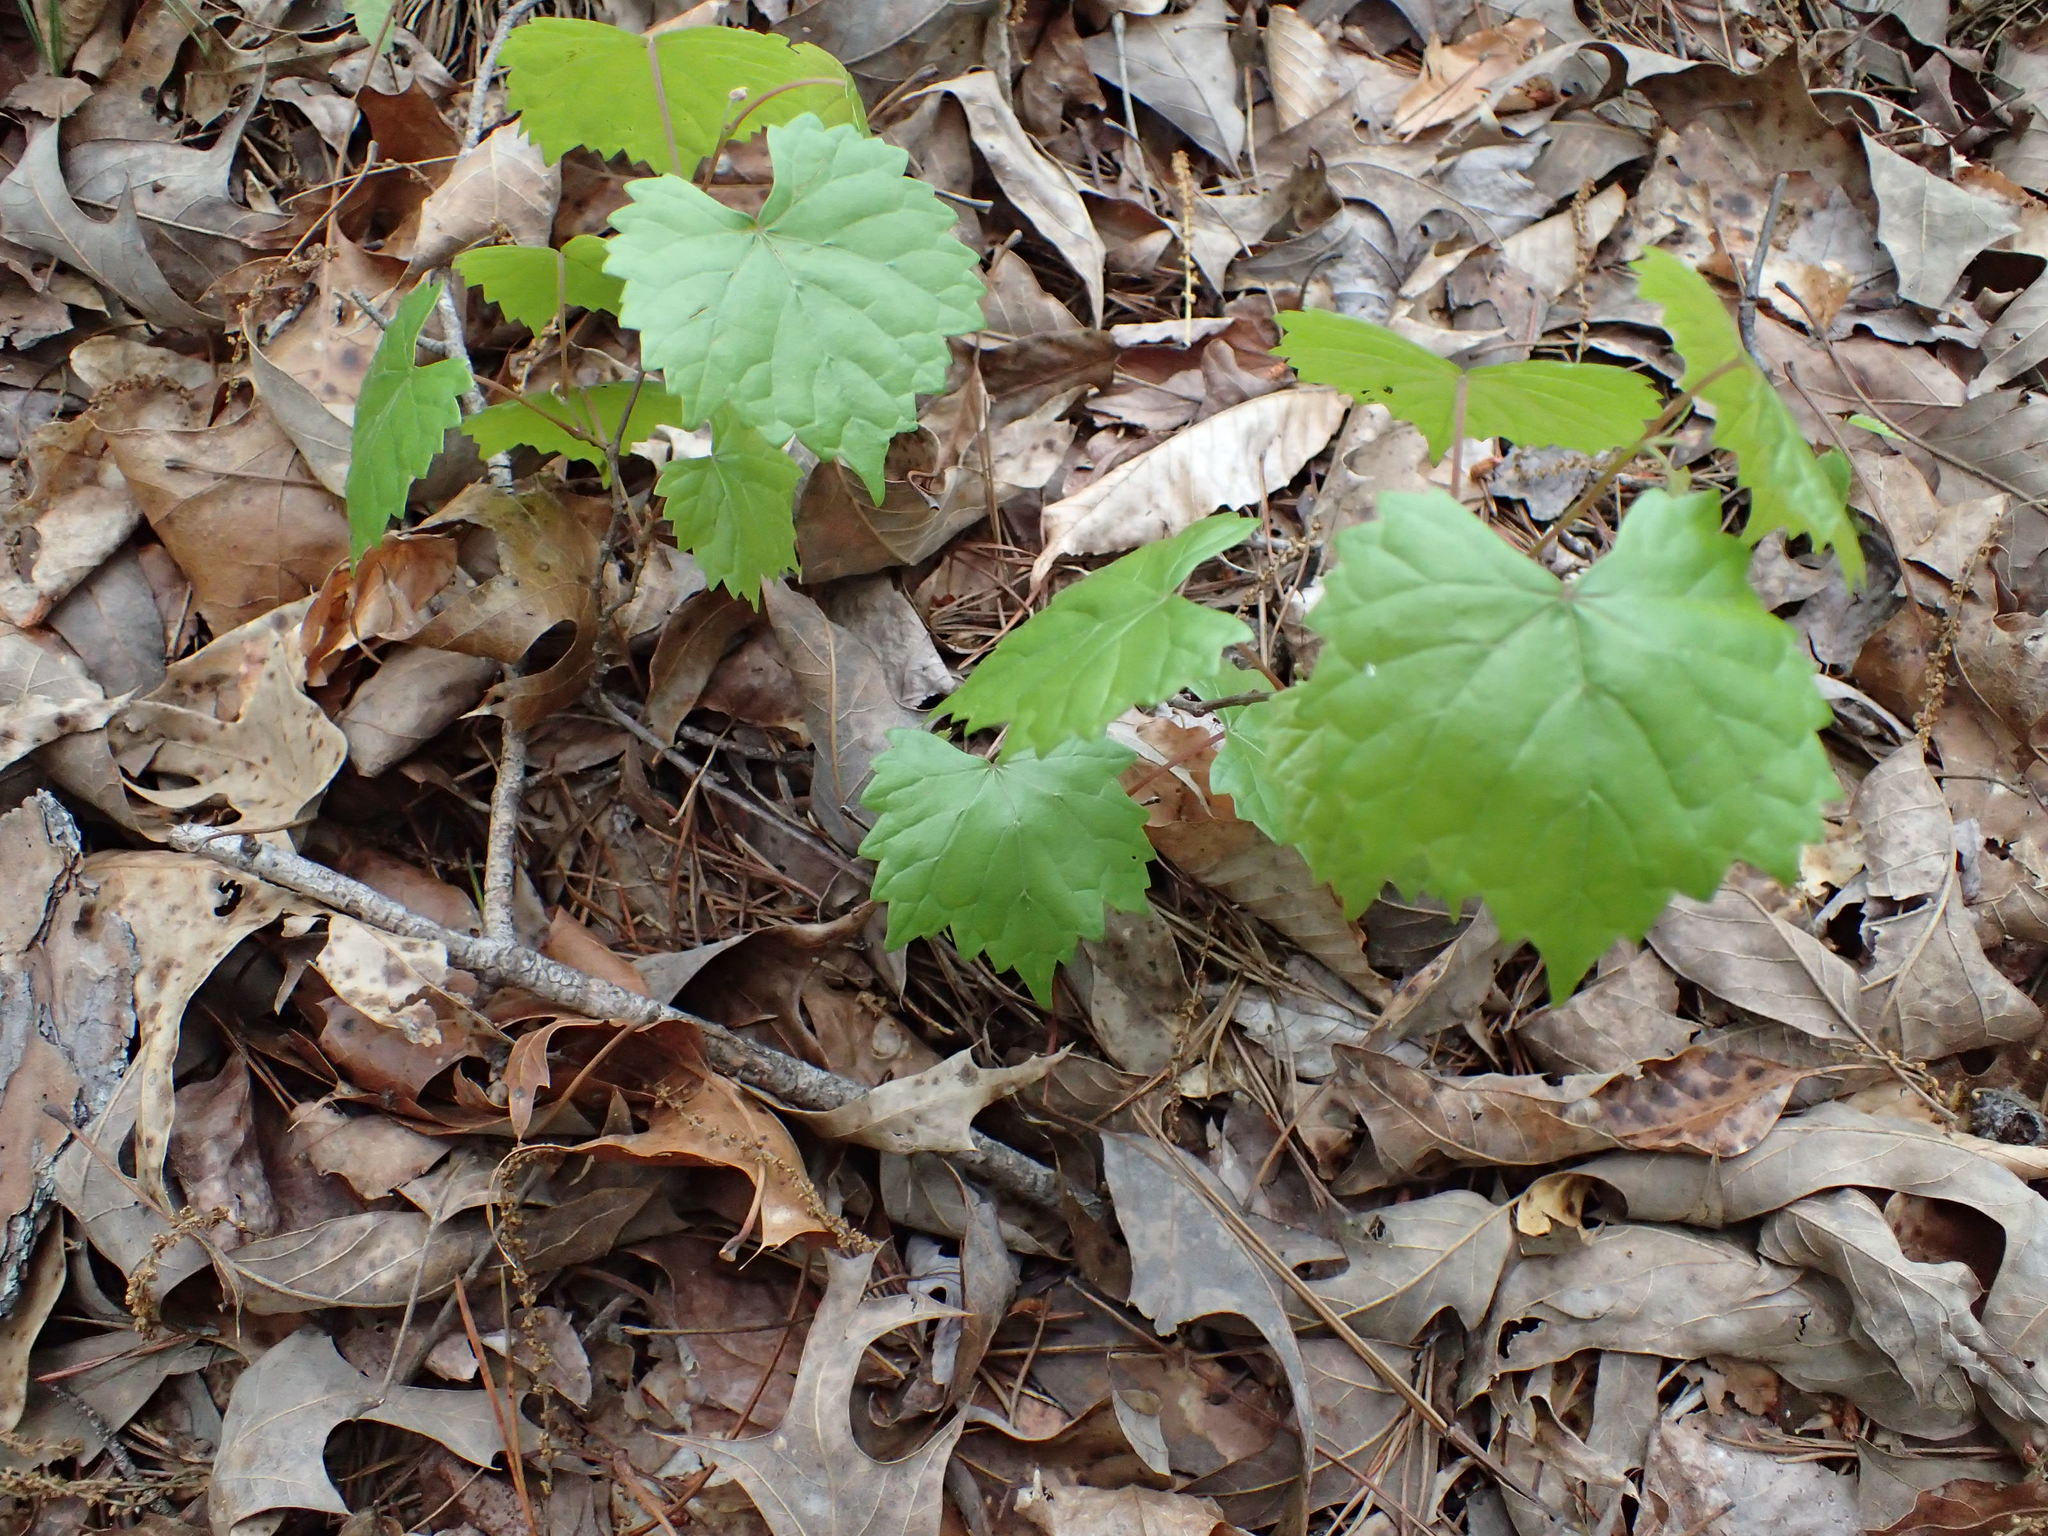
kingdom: Plantae
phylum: Tracheophyta
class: Magnoliopsida
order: Vitales
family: Vitaceae
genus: Vitis
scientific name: Vitis rotundifolia
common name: Muscadine grape
